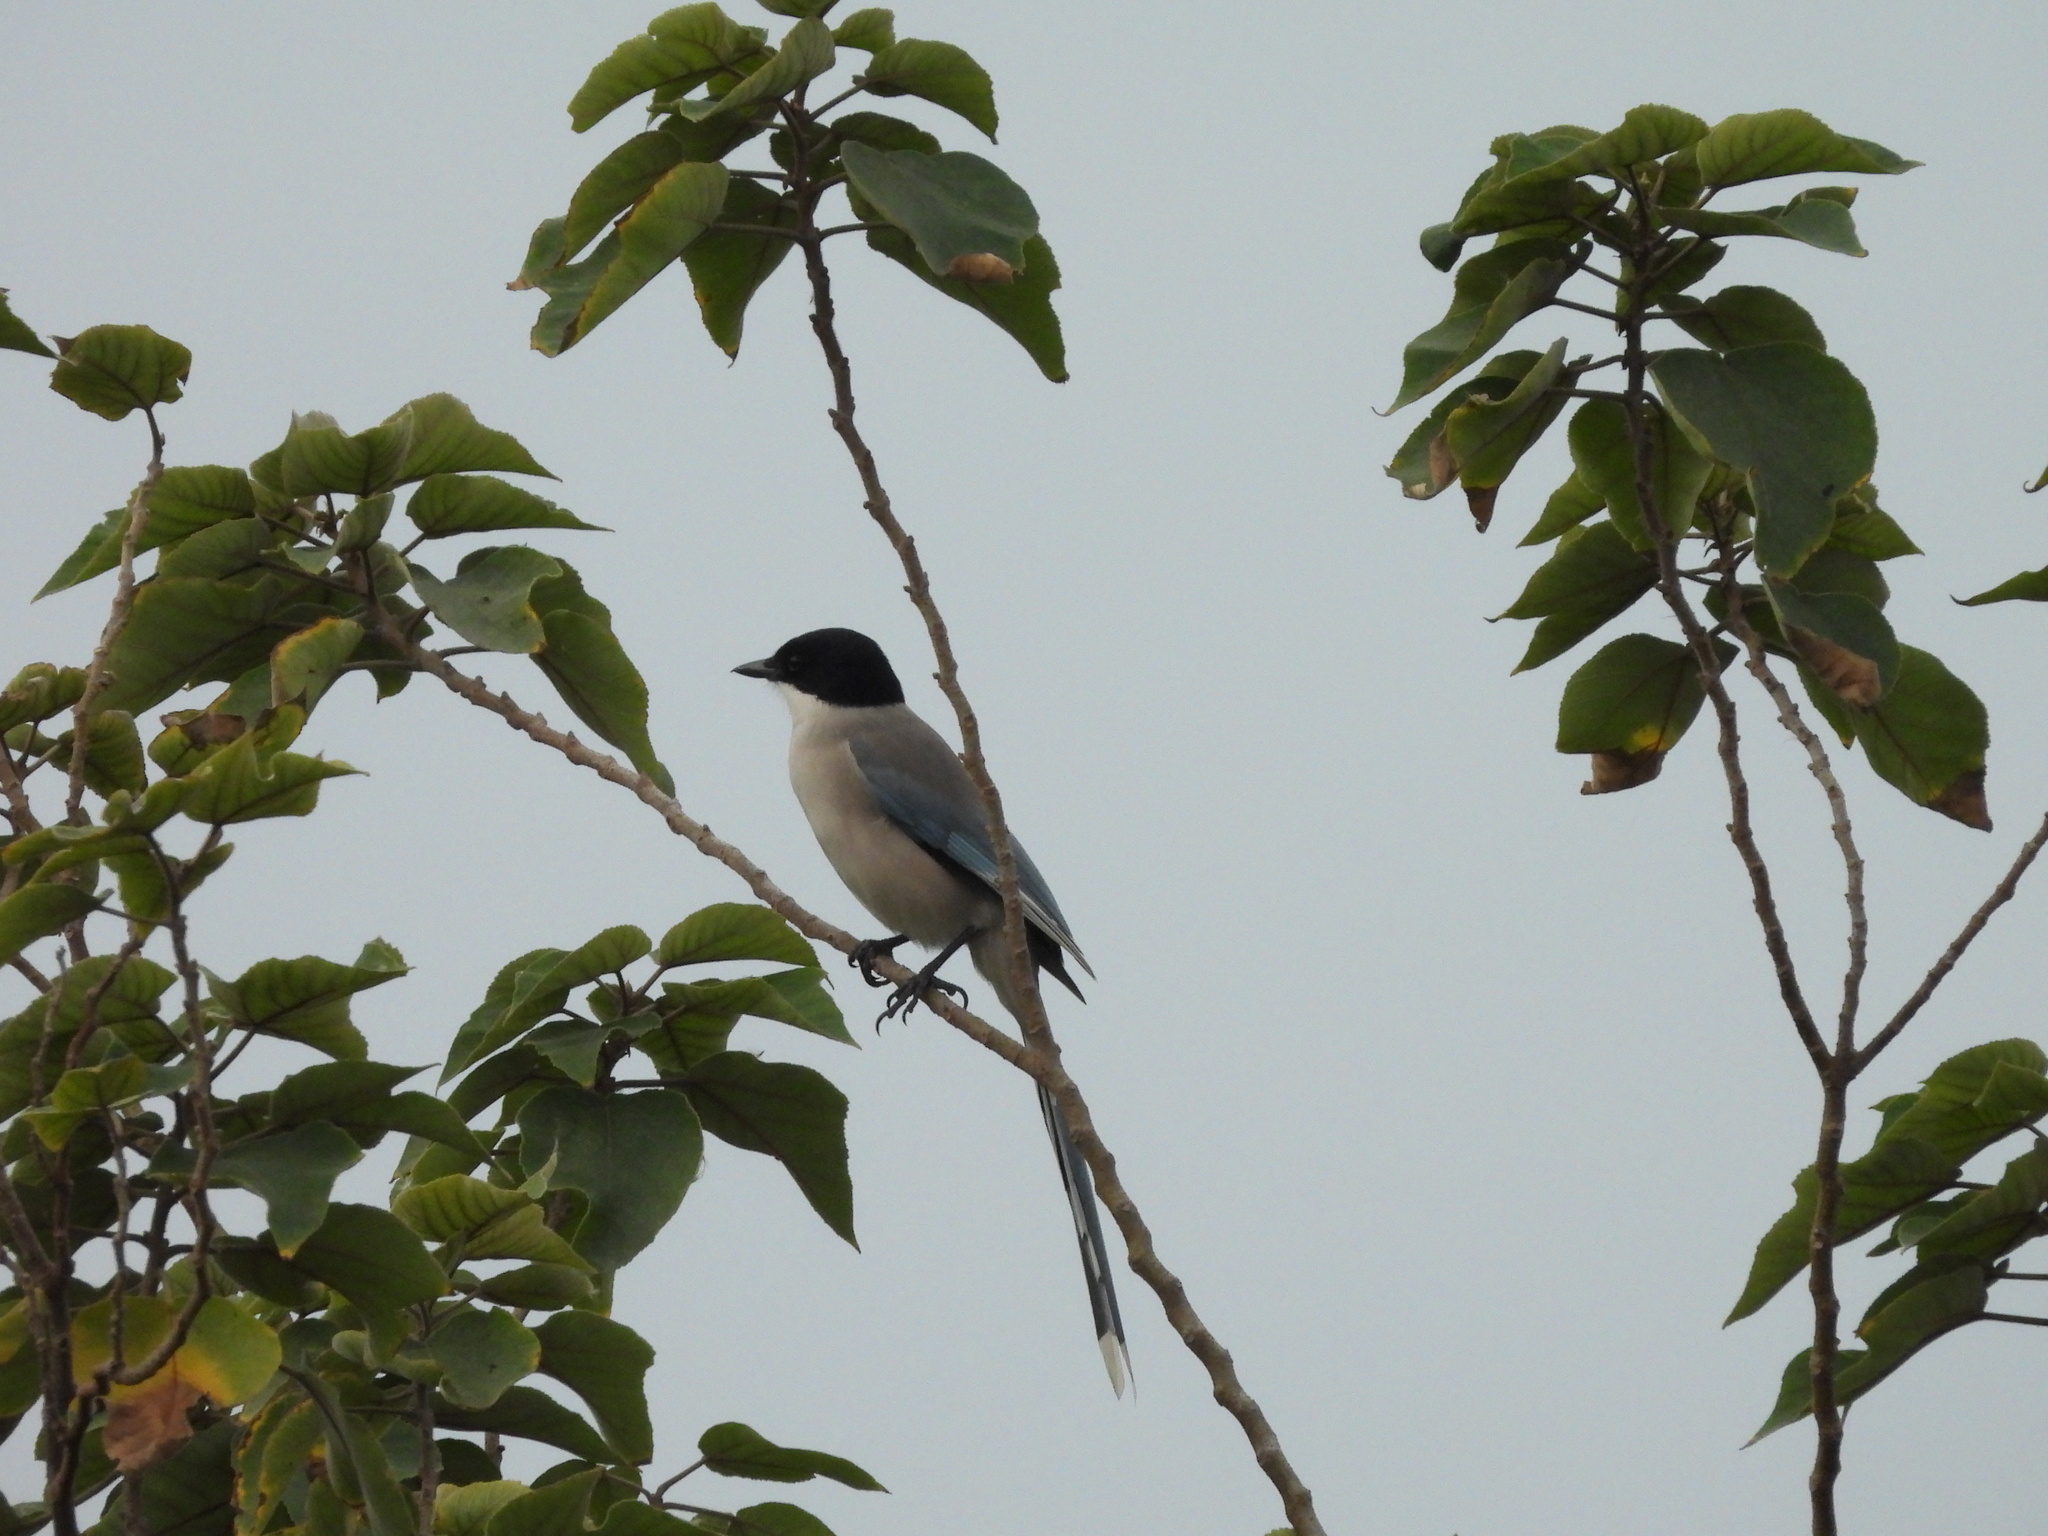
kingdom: Animalia
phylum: Chordata
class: Aves
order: Passeriformes
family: Corvidae
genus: Cyanopica
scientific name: Cyanopica cyanus
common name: Azure-winged magpie
